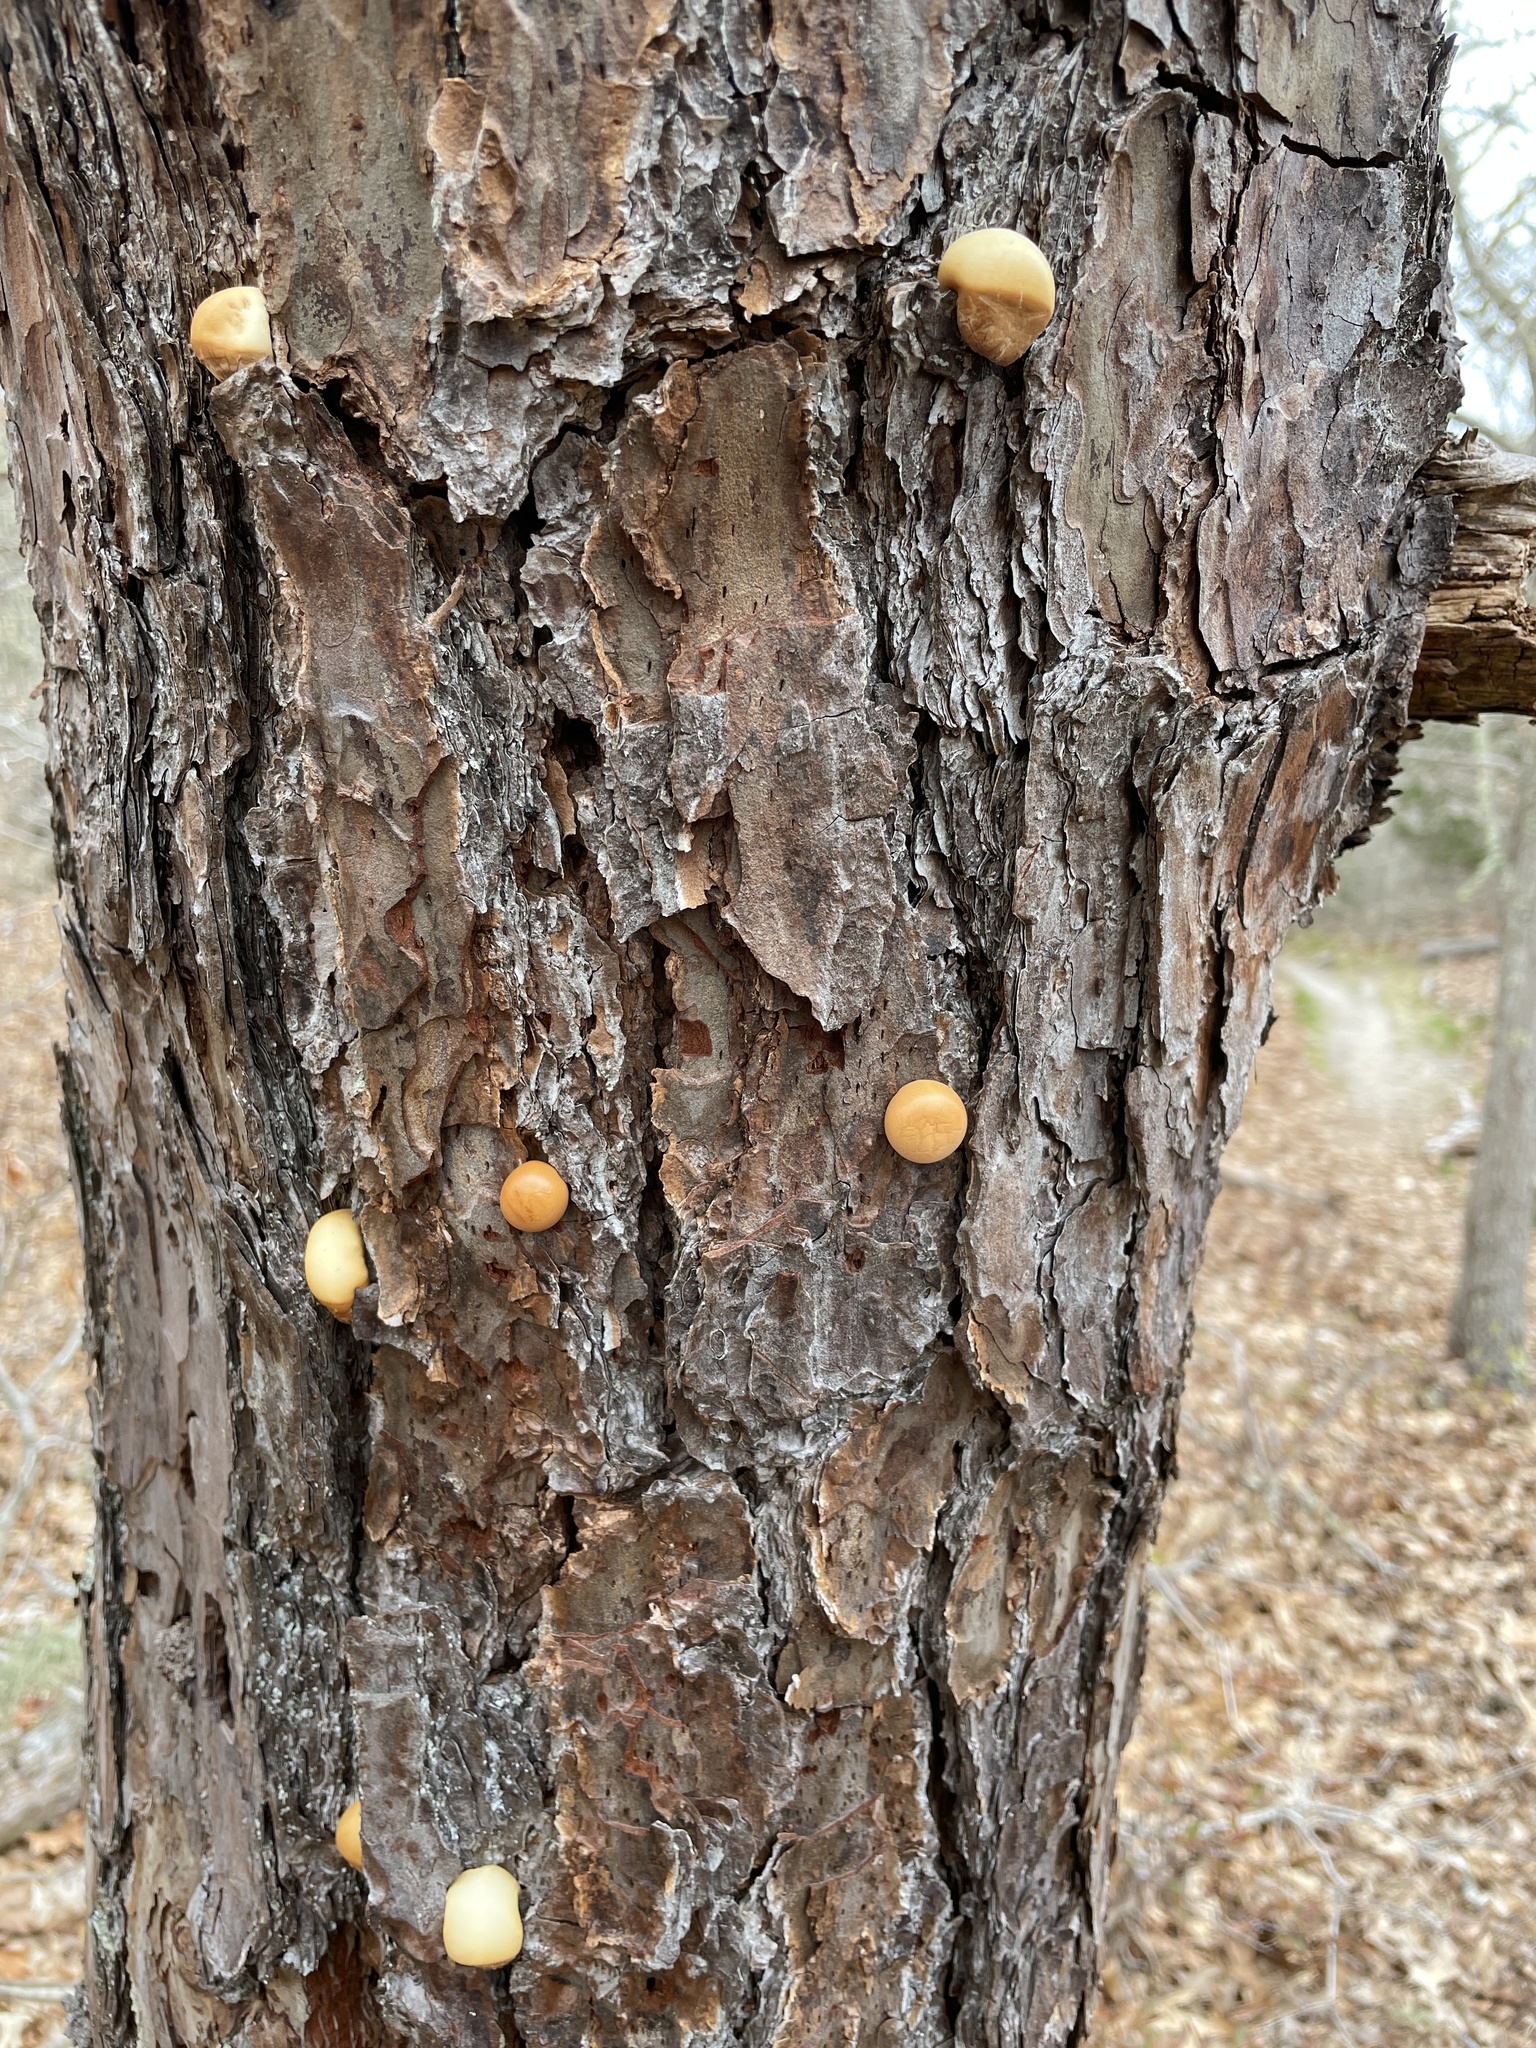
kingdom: Fungi
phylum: Basidiomycota
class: Agaricomycetes
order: Polyporales
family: Polyporaceae
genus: Cryptoporus
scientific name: Cryptoporus volvatus
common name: Veiled polypore
